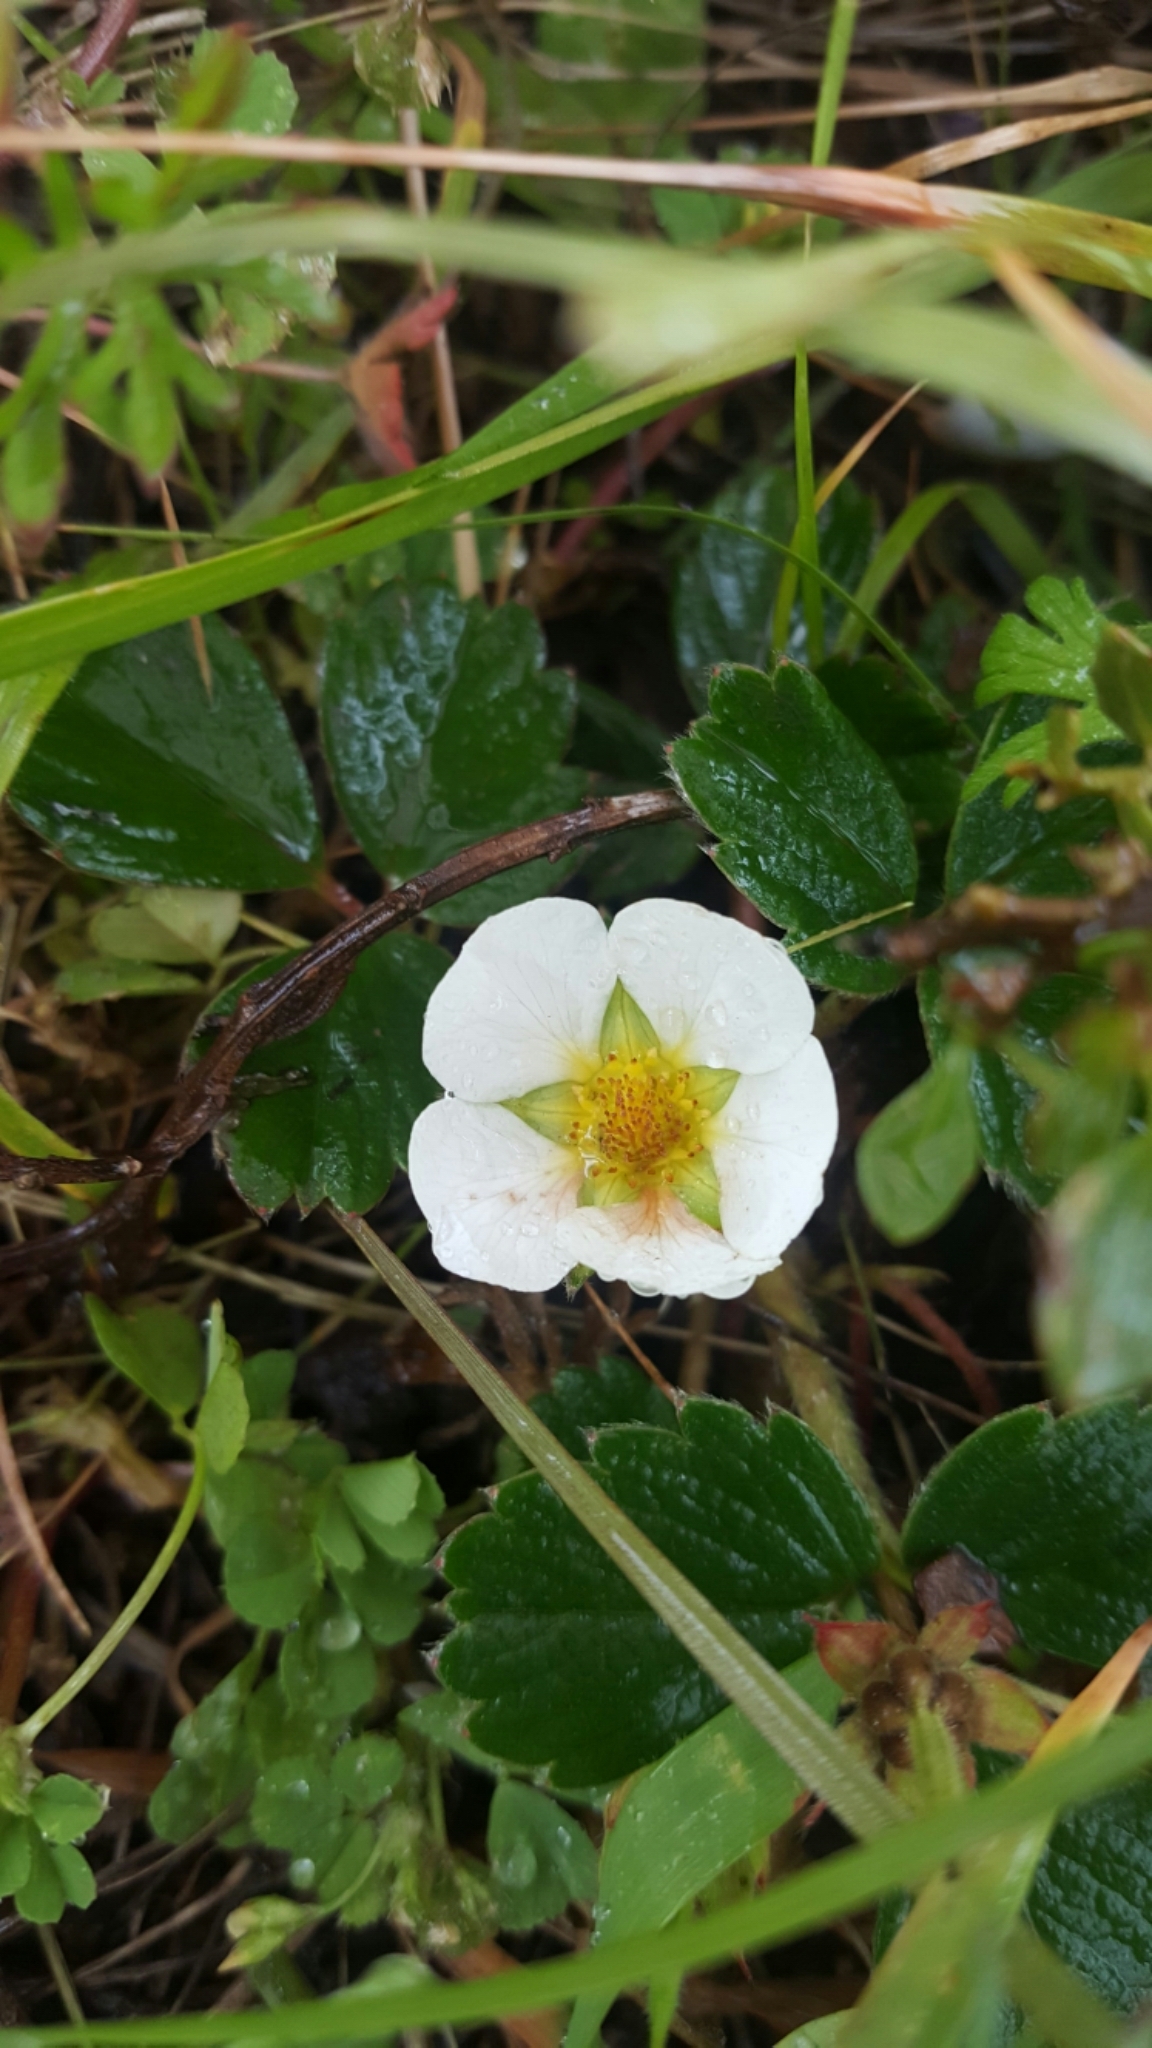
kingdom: Plantae
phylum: Tracheophyta
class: Magnoliopsida
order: Rosales
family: Rosaceae
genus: Fragaria
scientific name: Fragaria chiloensis
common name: Beach strawberry
